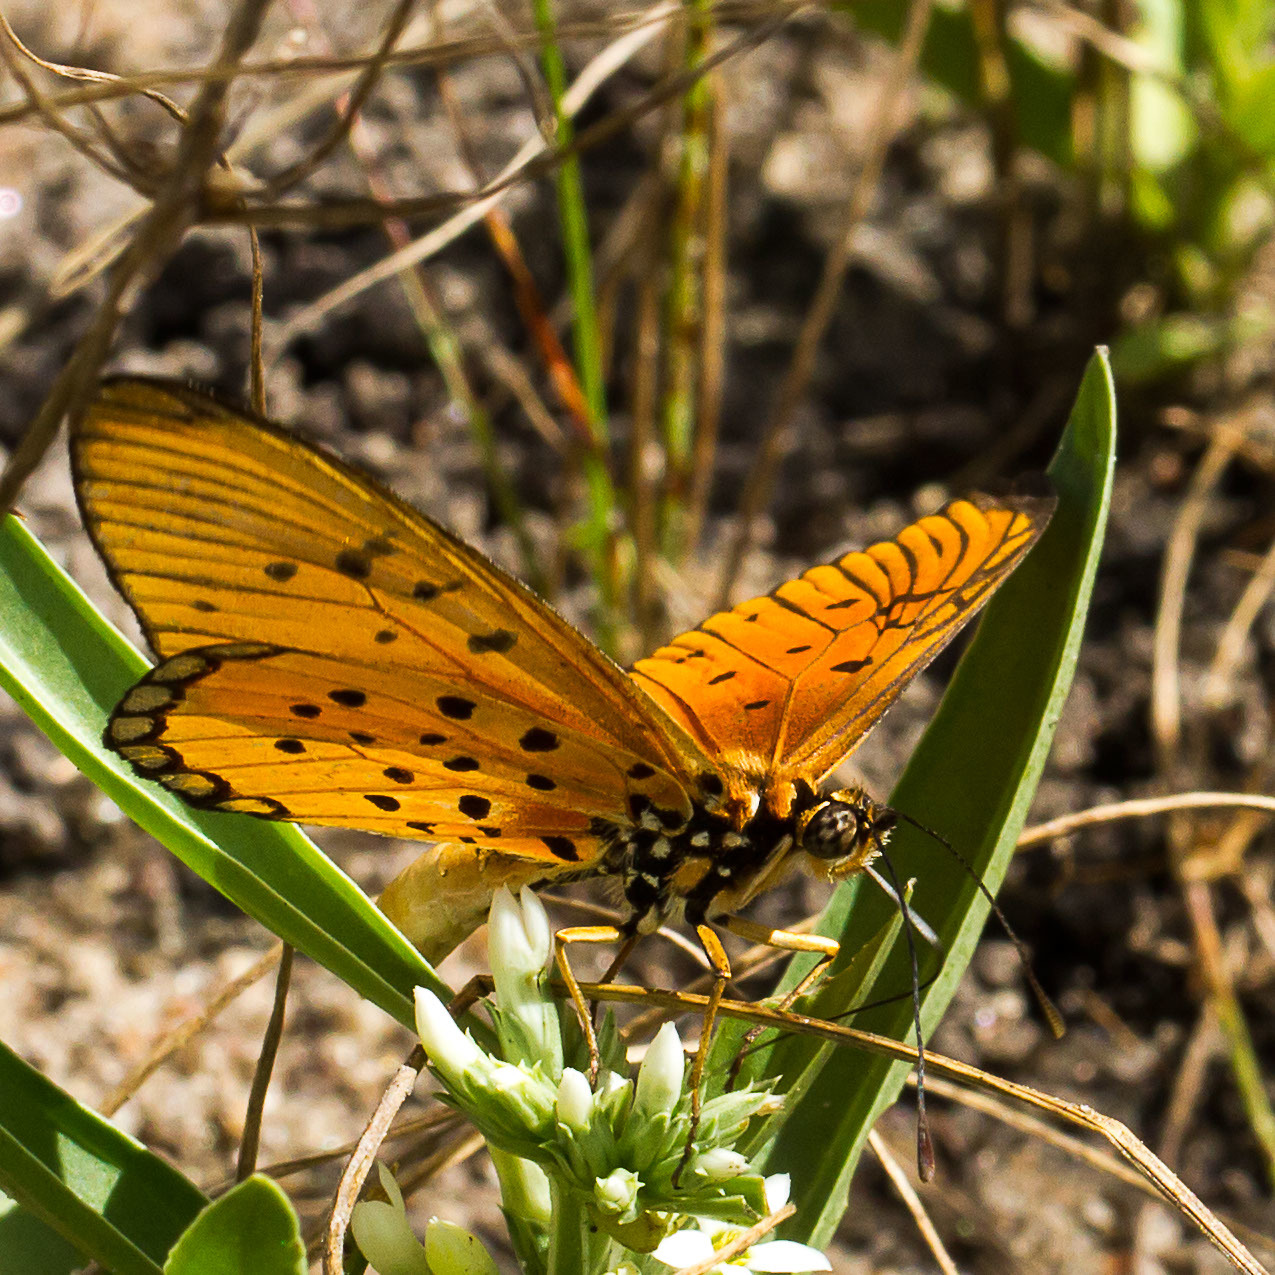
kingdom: Animalia
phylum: Arthropoda
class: Insecta
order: Lepidoptera
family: Nymphalidae
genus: Stephenia
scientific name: Stephenia
